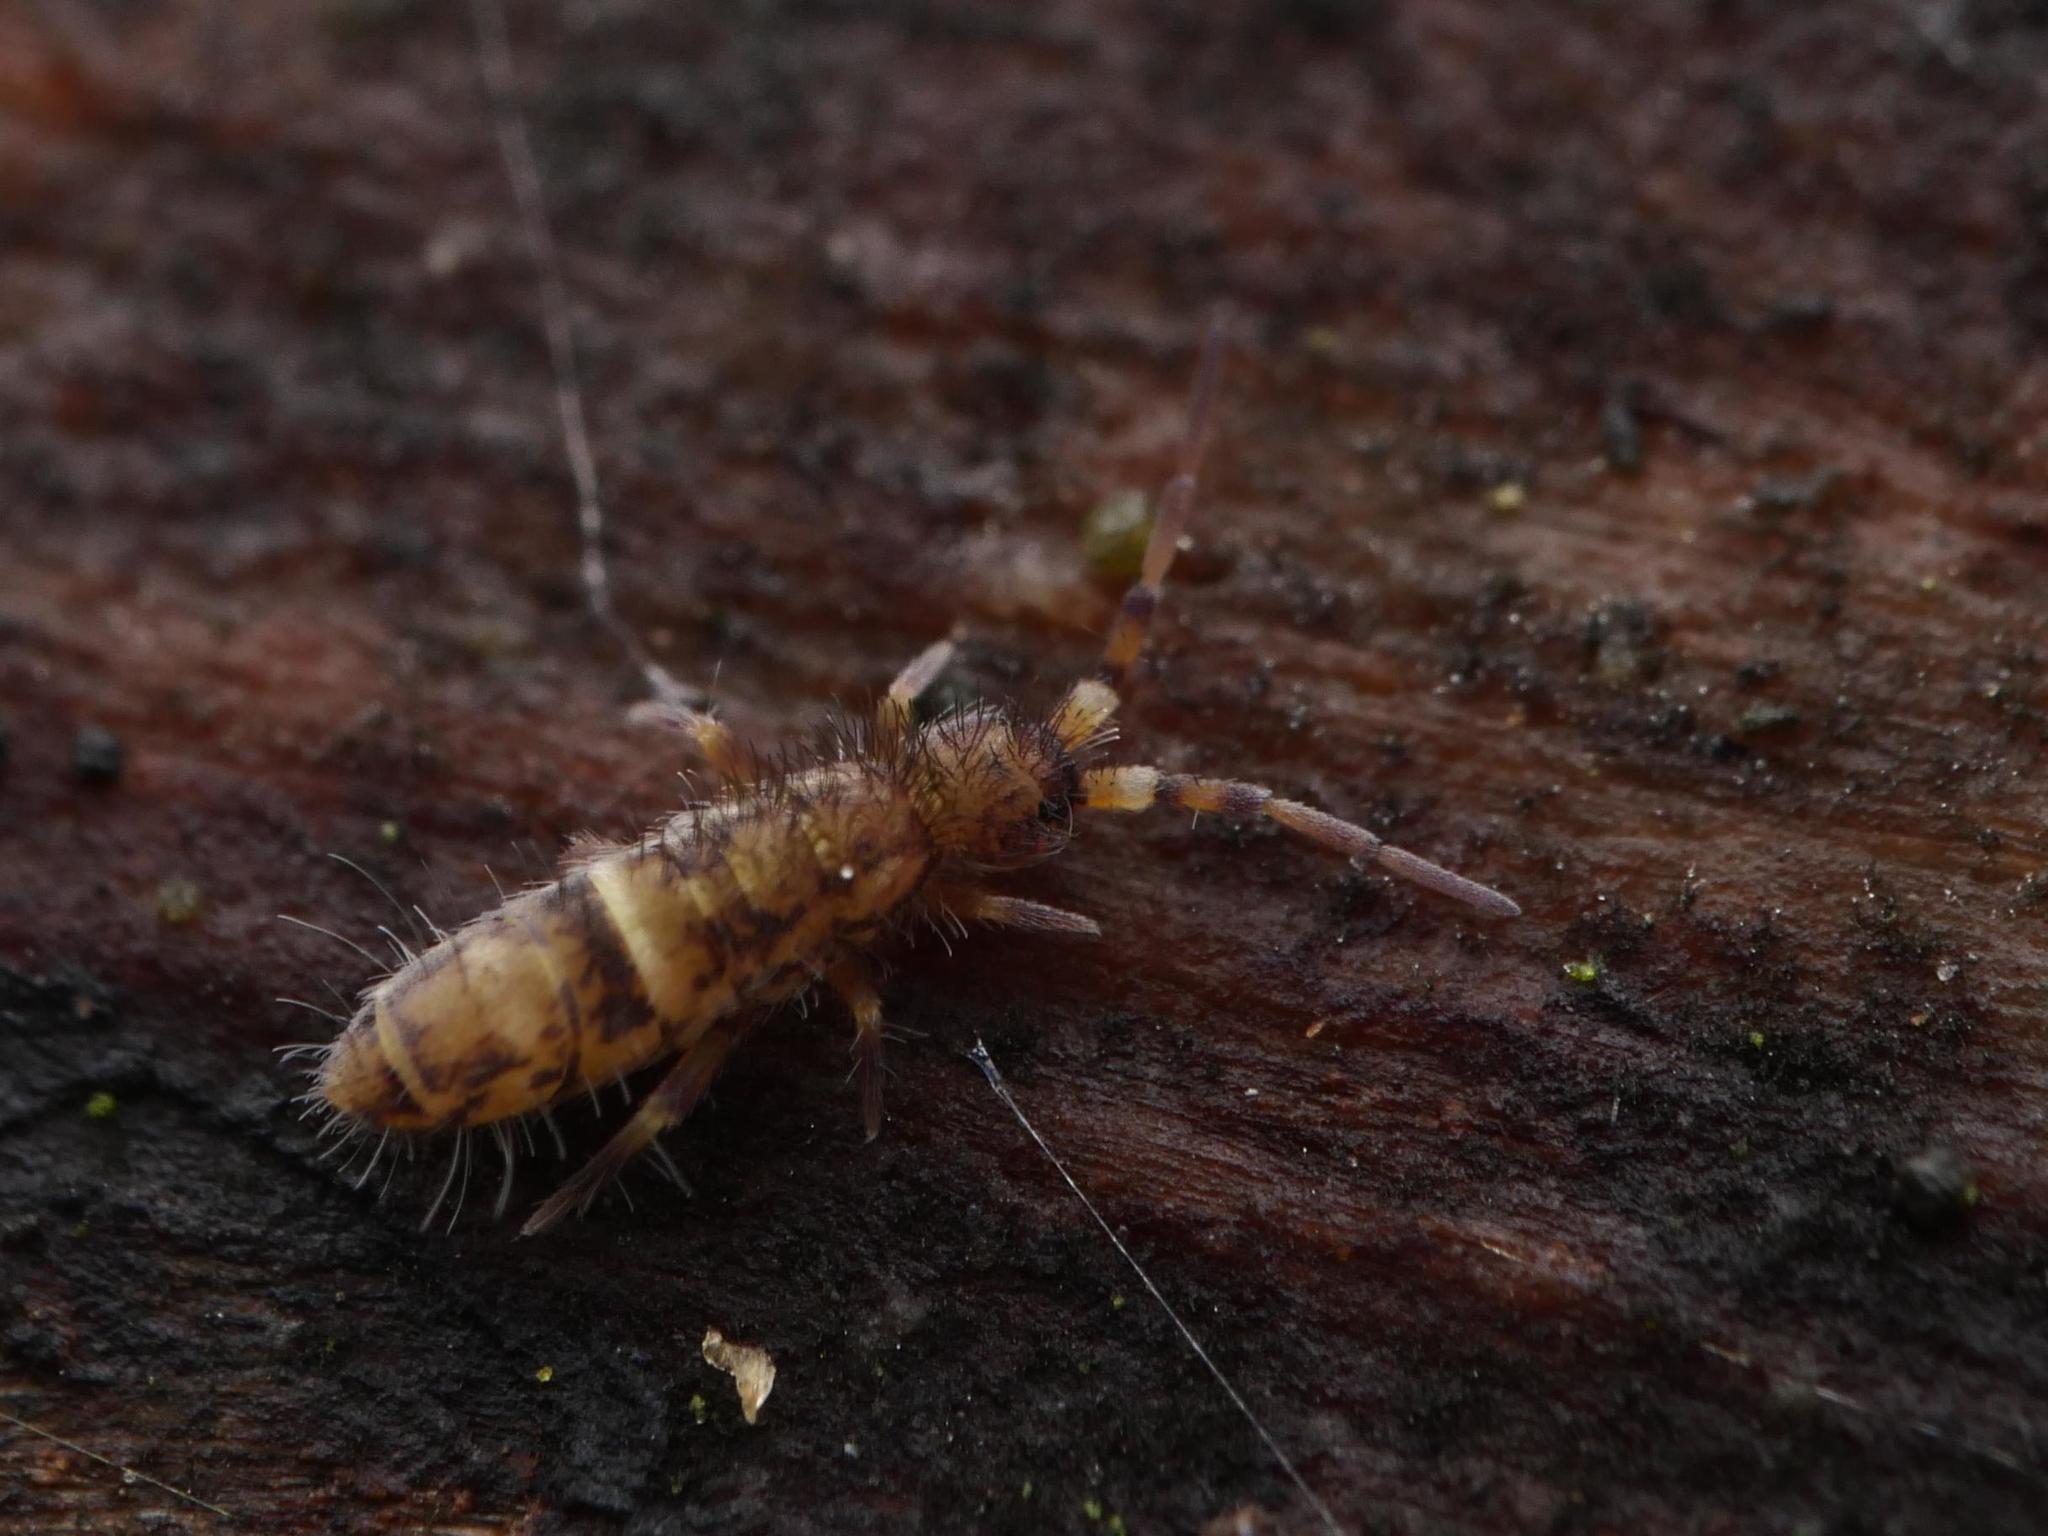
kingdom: Animalia
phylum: Arthropoda
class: Collembola
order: Entomobryomorpha
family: Orchesellidae
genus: Orchesella
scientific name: Orchesella cincta
